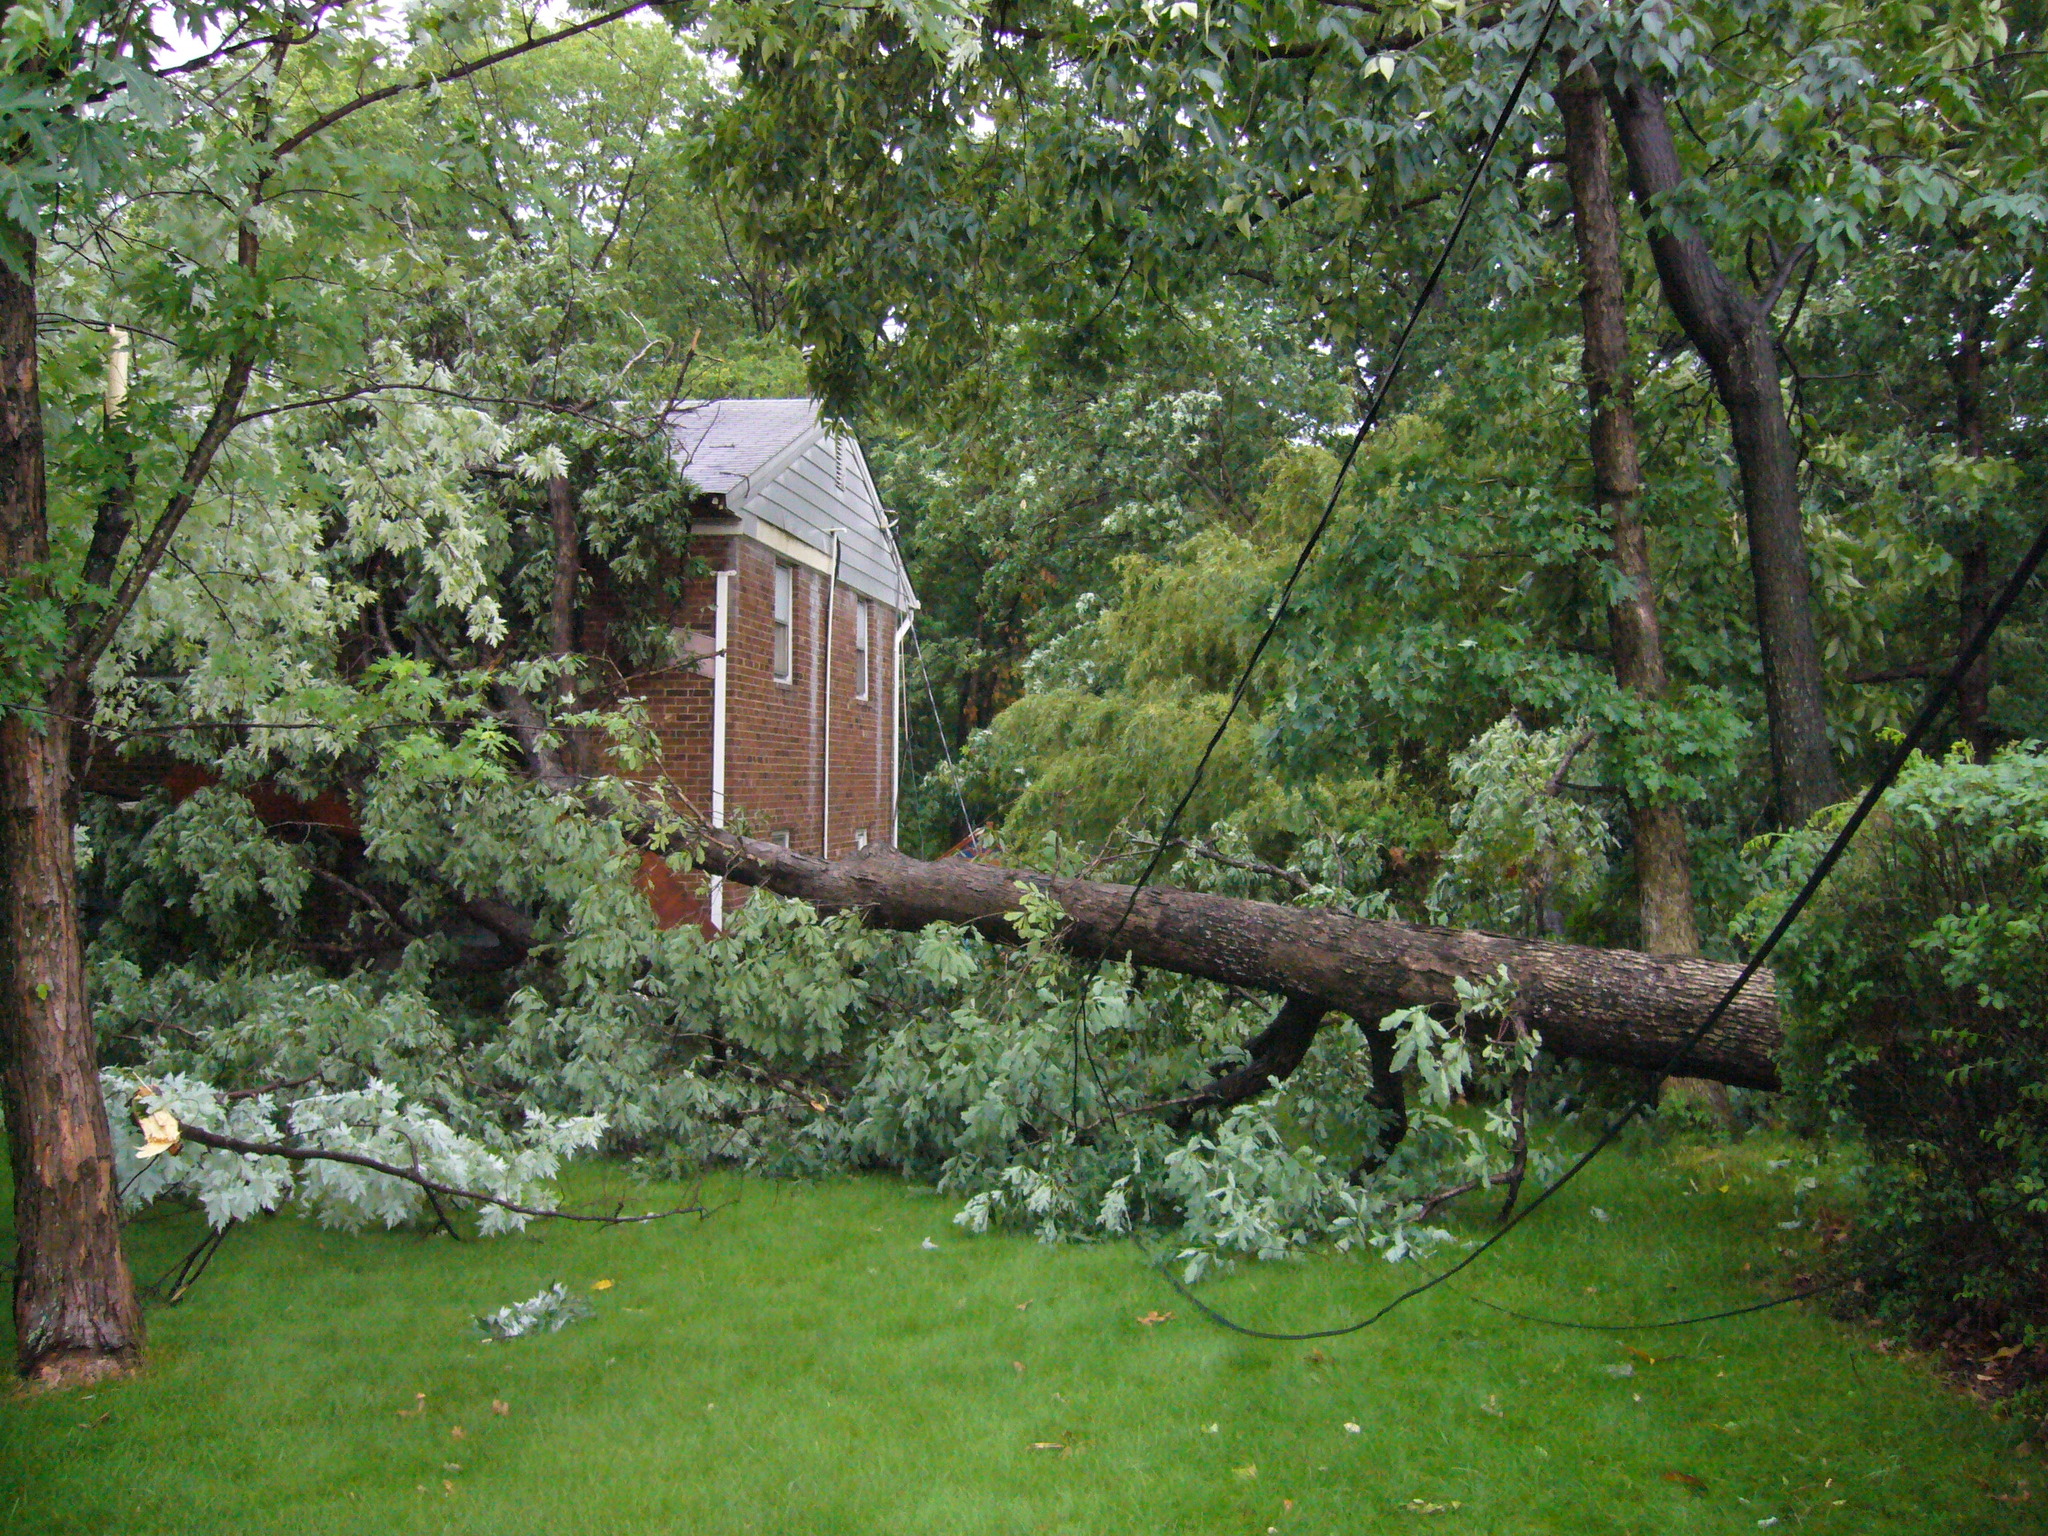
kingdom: Plantae
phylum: Tracheophyta
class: Magnoliopsida
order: Fagales
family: Fagaceae
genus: Quercus
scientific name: Quercus alba
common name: White oak
